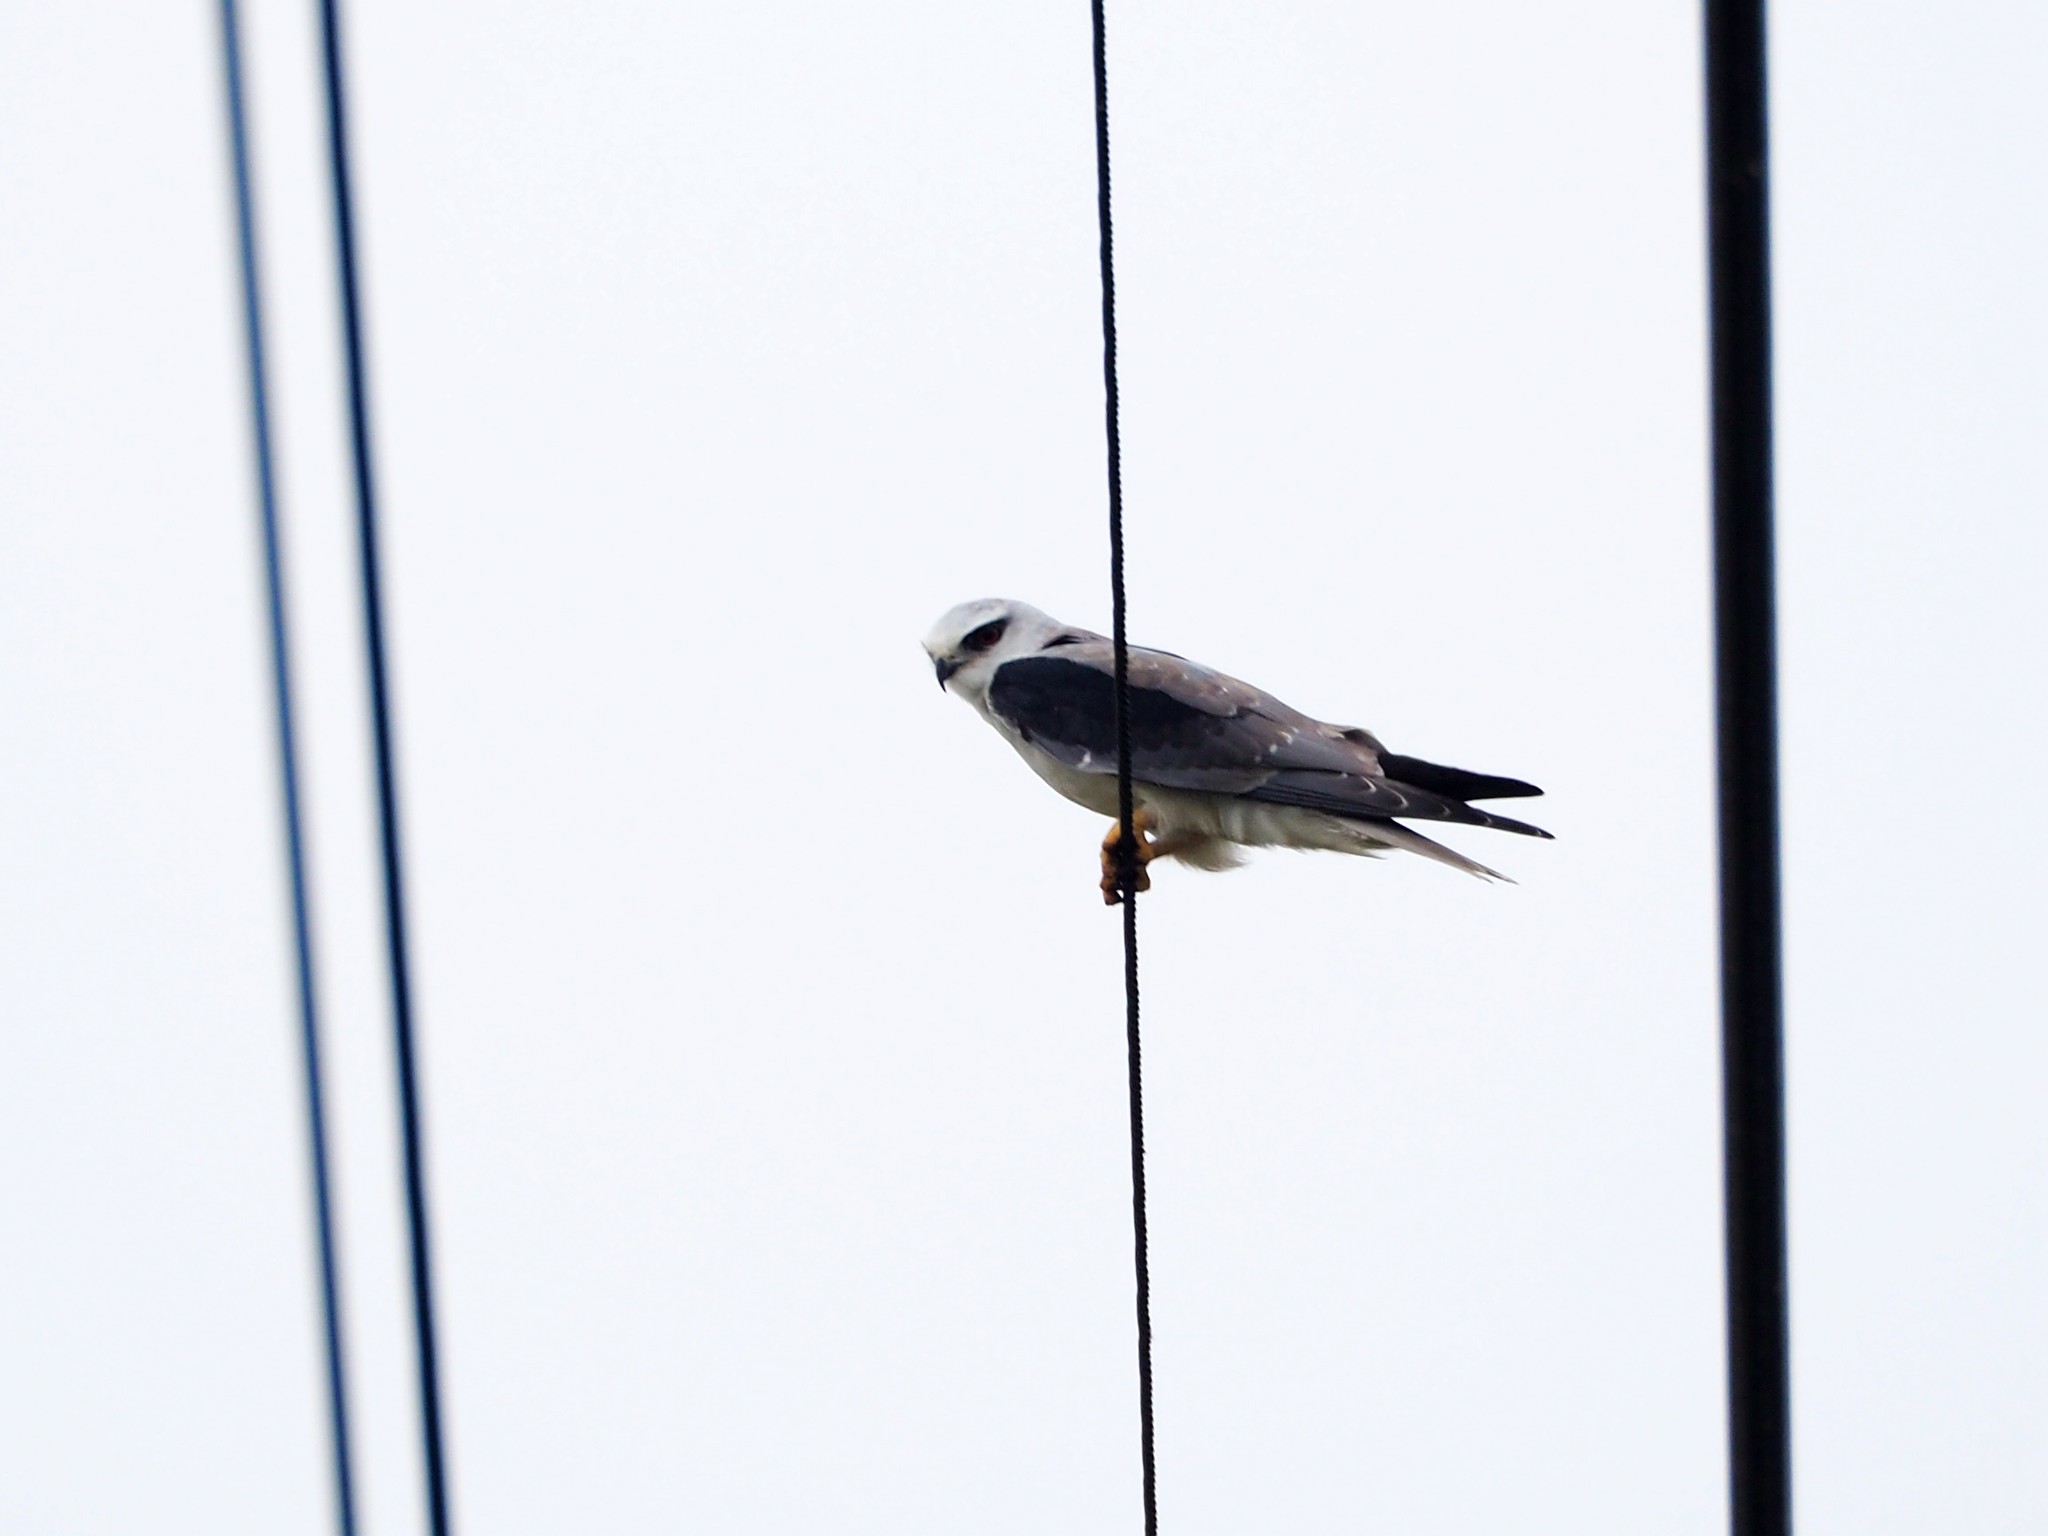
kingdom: Animalia
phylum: Chordata
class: Aves
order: Accipitriformes
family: Accipitridae
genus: Elanus
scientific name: Elanus caeruleus
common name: Black-winged kite
